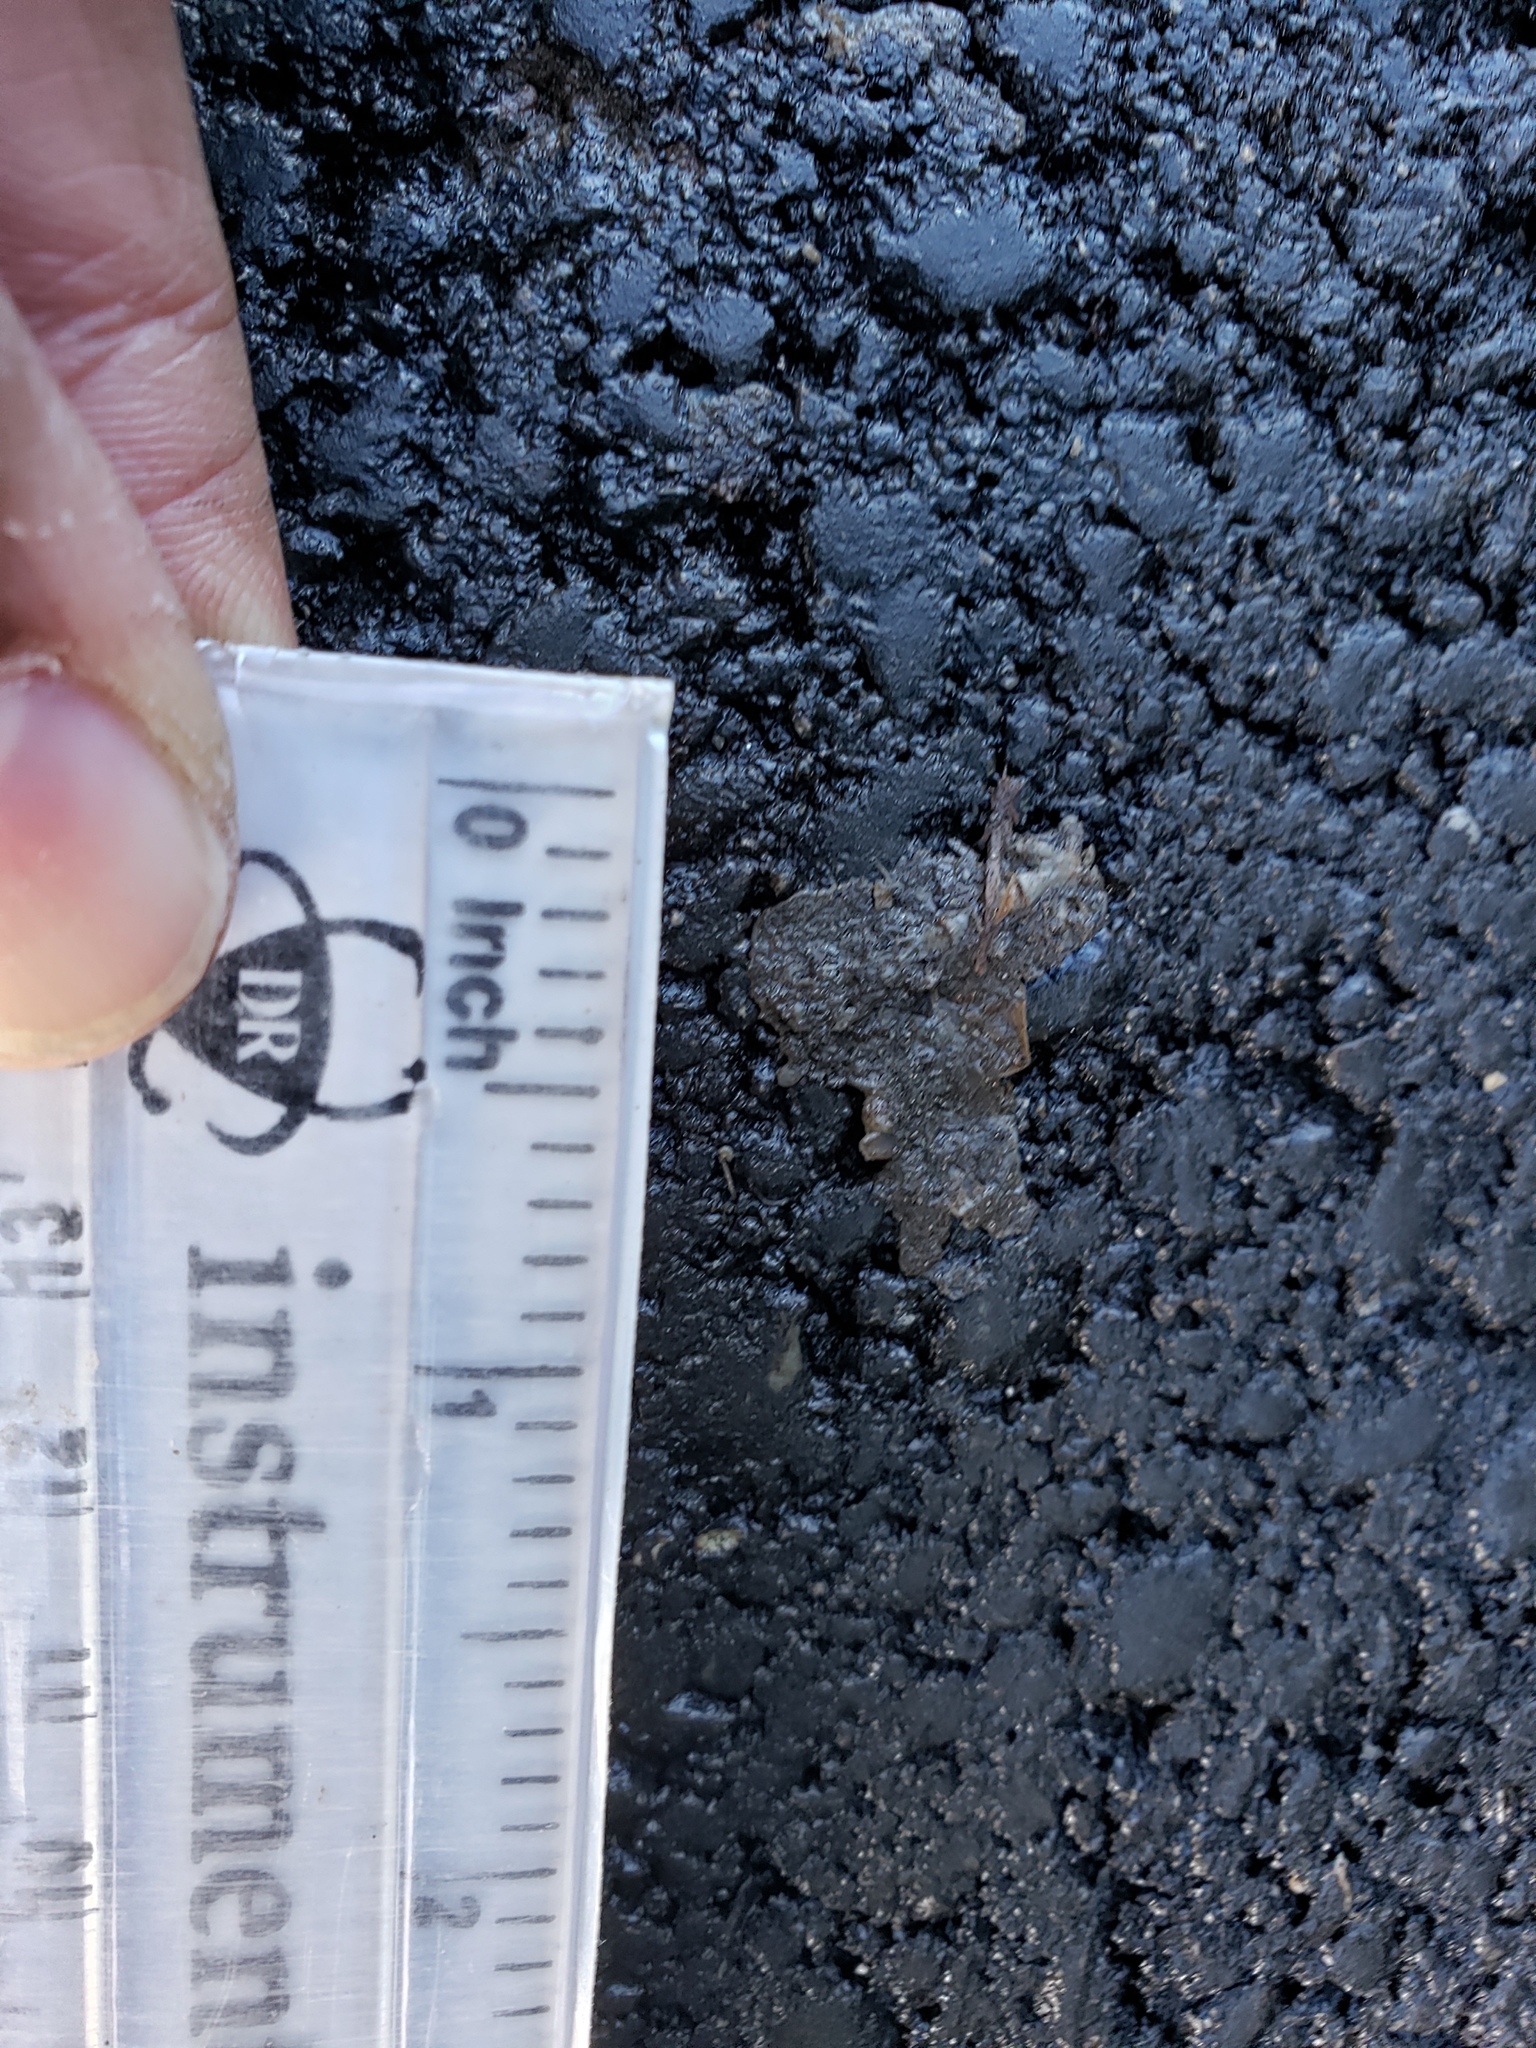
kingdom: Animalia
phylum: Chordata
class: Amphibia
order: Caudata
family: Salamandridae
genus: Taricha
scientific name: Taricha
